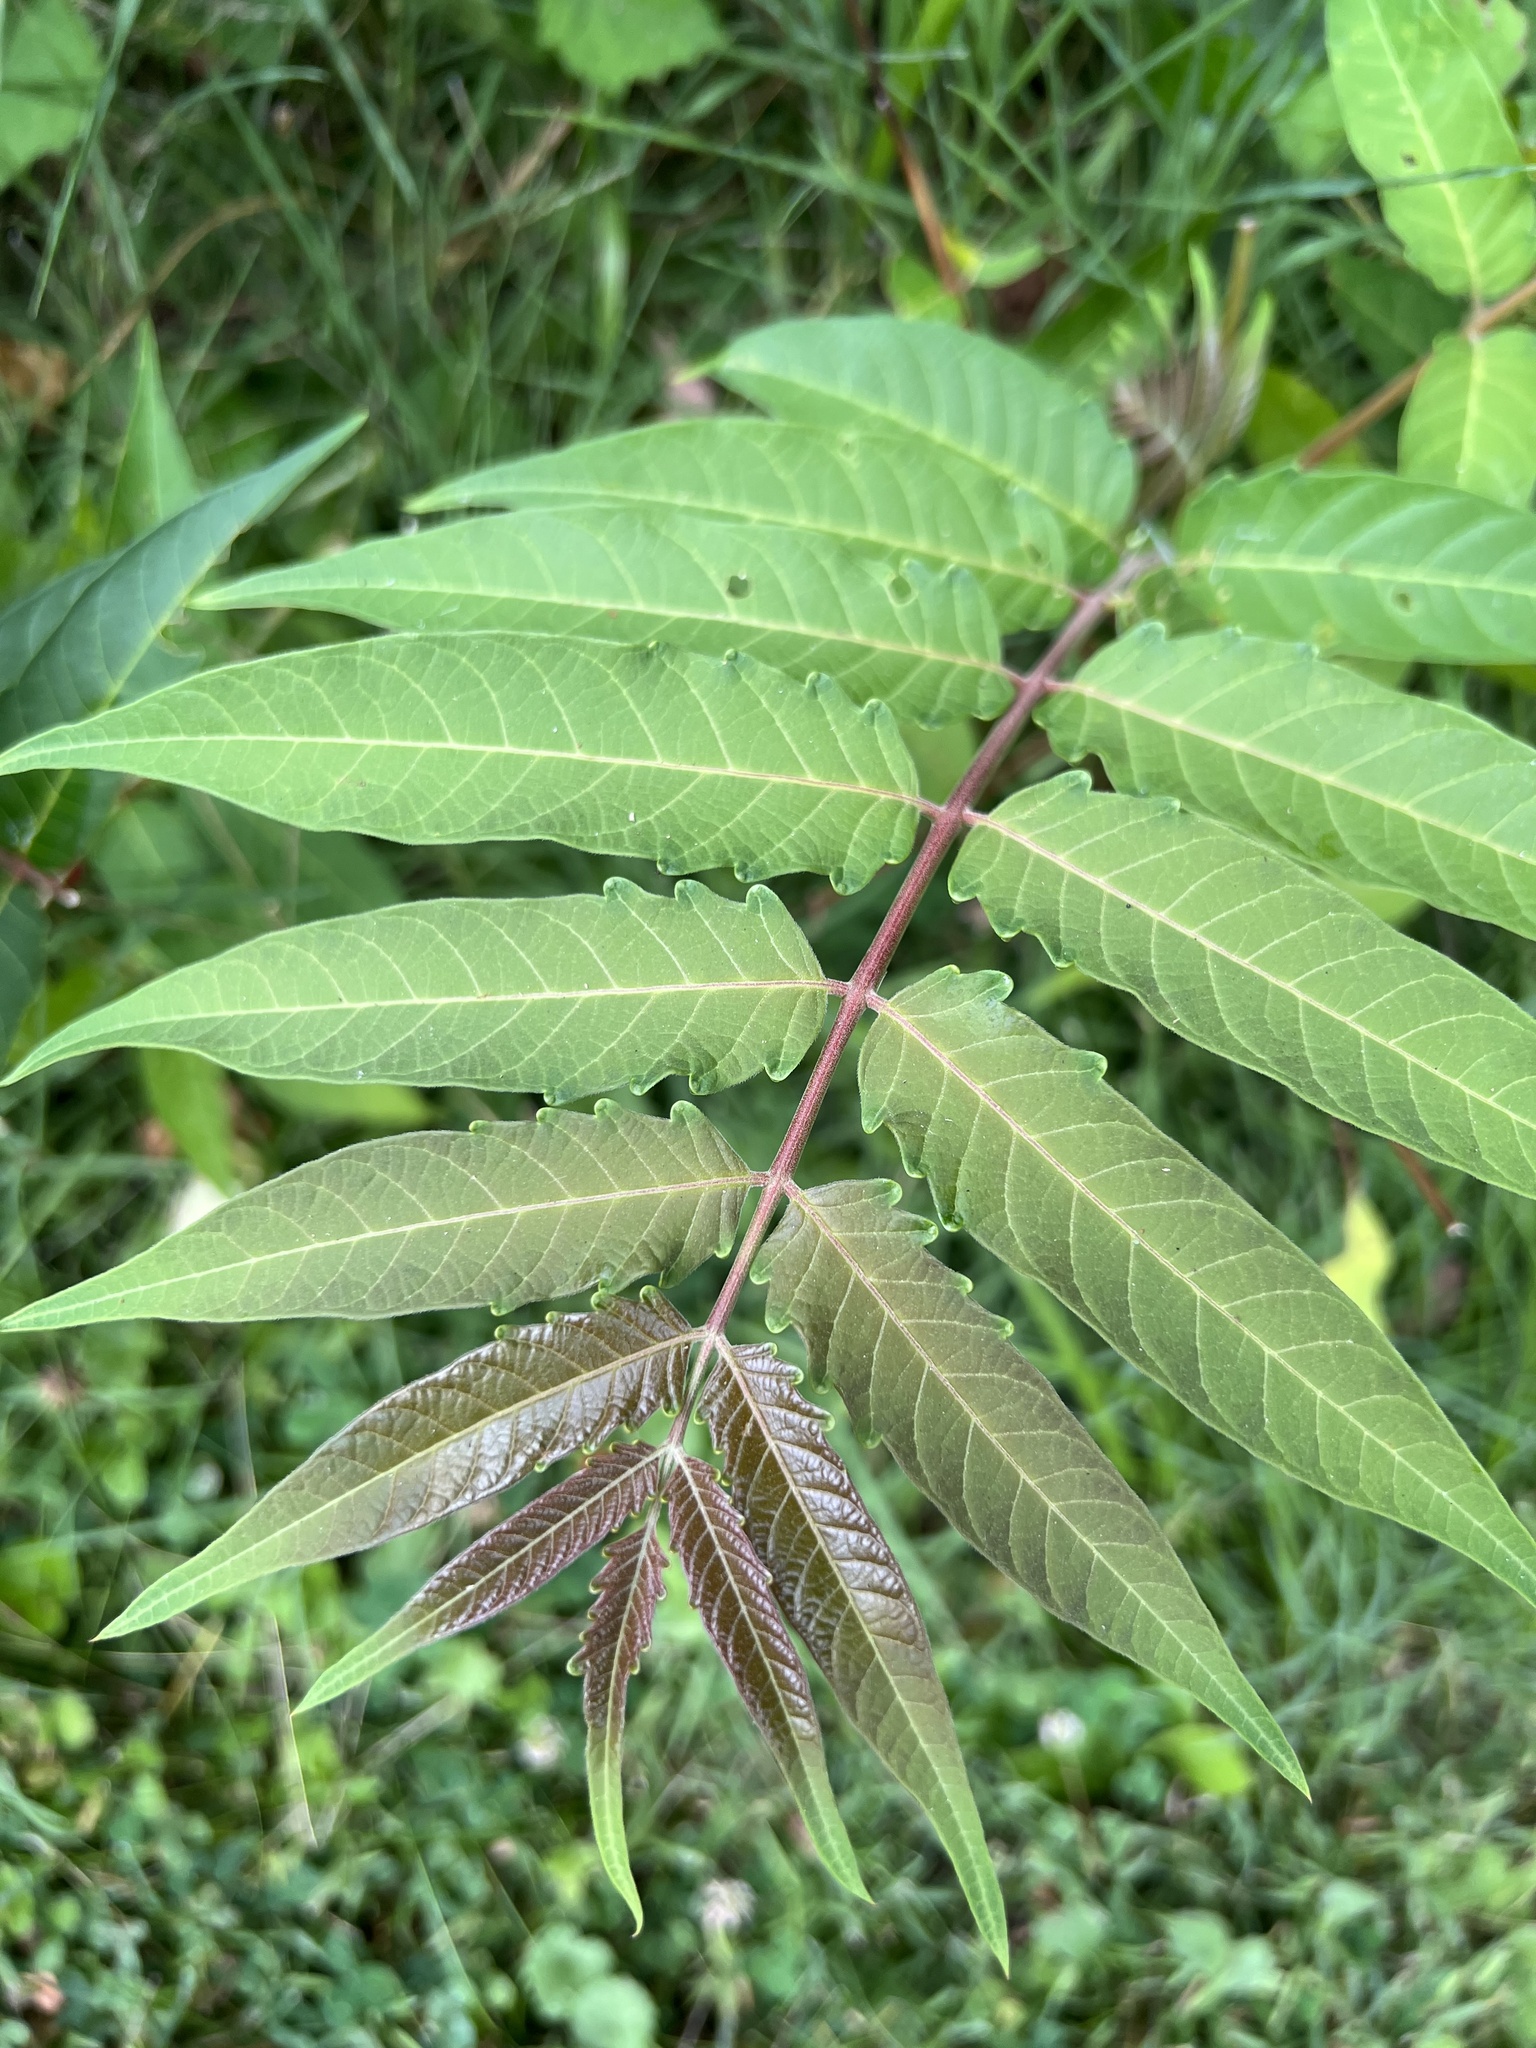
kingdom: Plantae
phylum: Tracheophyta
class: Magnoliopsida
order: Sapindales
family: Simaroubaceae
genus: Ailanthus
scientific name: Ailanthus altissima
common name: Tree-of-heaven
